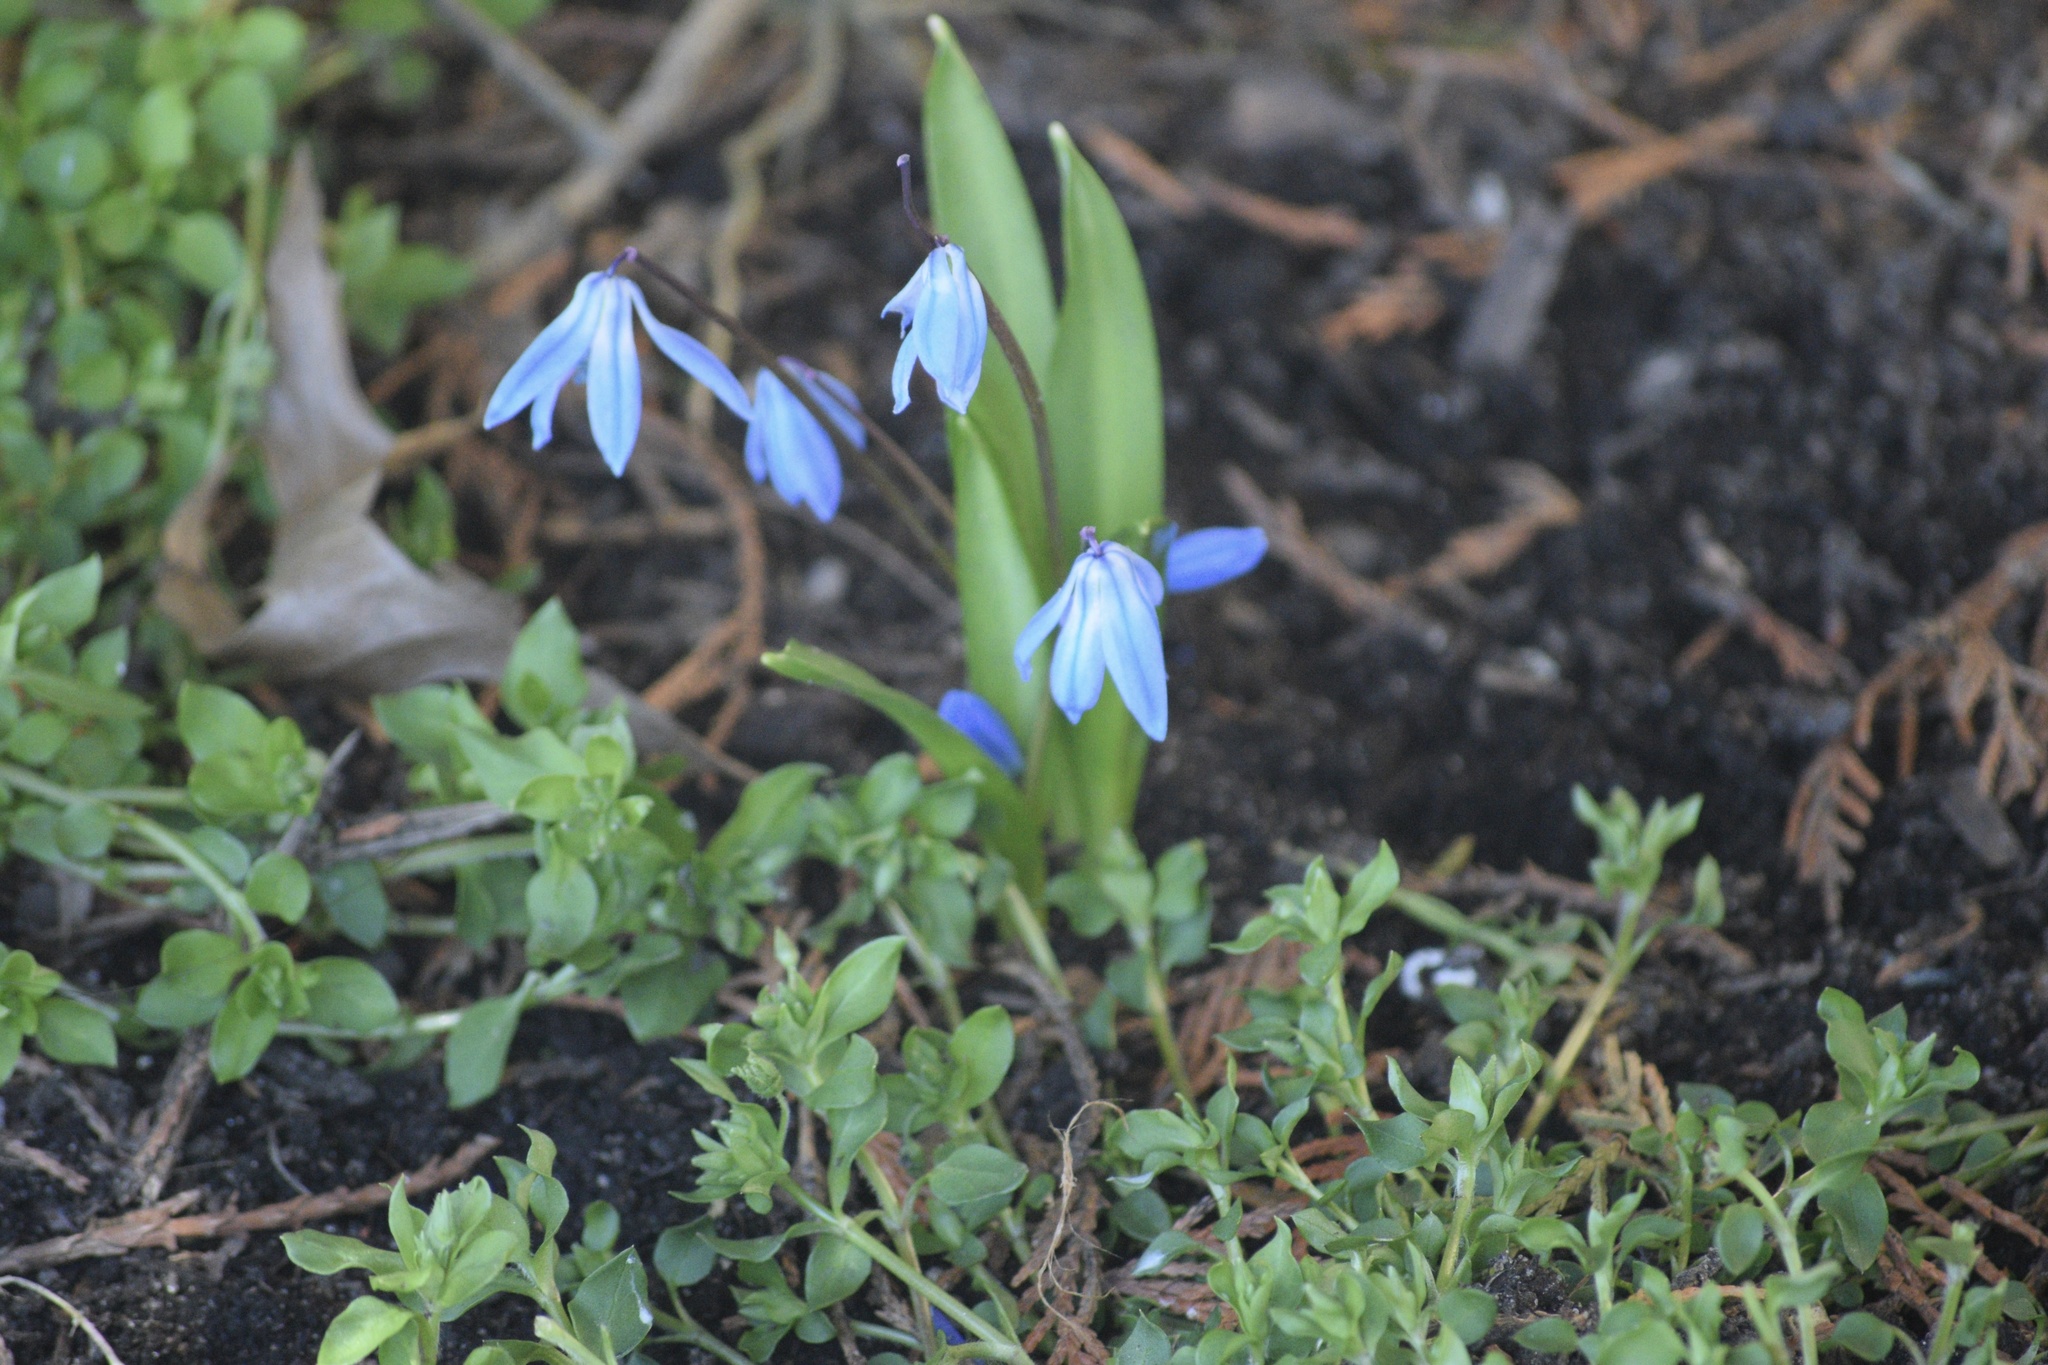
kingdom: Plantae
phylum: Tracheophyta
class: Liliopsida
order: Asparagales
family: Asparagaceae
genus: Scilla
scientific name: Scilla siberica
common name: Siberian squill
